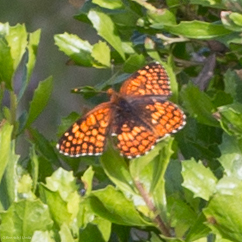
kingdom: Animalia
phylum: Arthropoda
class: Insecta
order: Lepidoptera
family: Nymphalidae
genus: Chlosyne
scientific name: Chlosyne palla
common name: Northern checkerspot
